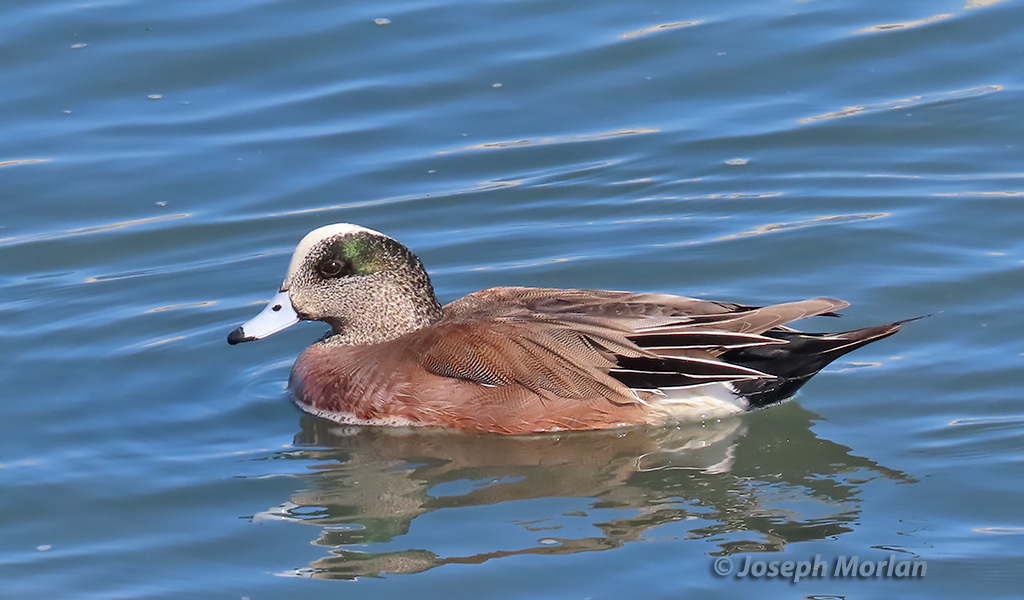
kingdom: Animalia
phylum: Chordata
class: Aves
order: Anseriformes
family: Anatidae
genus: Mareca
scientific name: Mareca americana
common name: American wigeon
